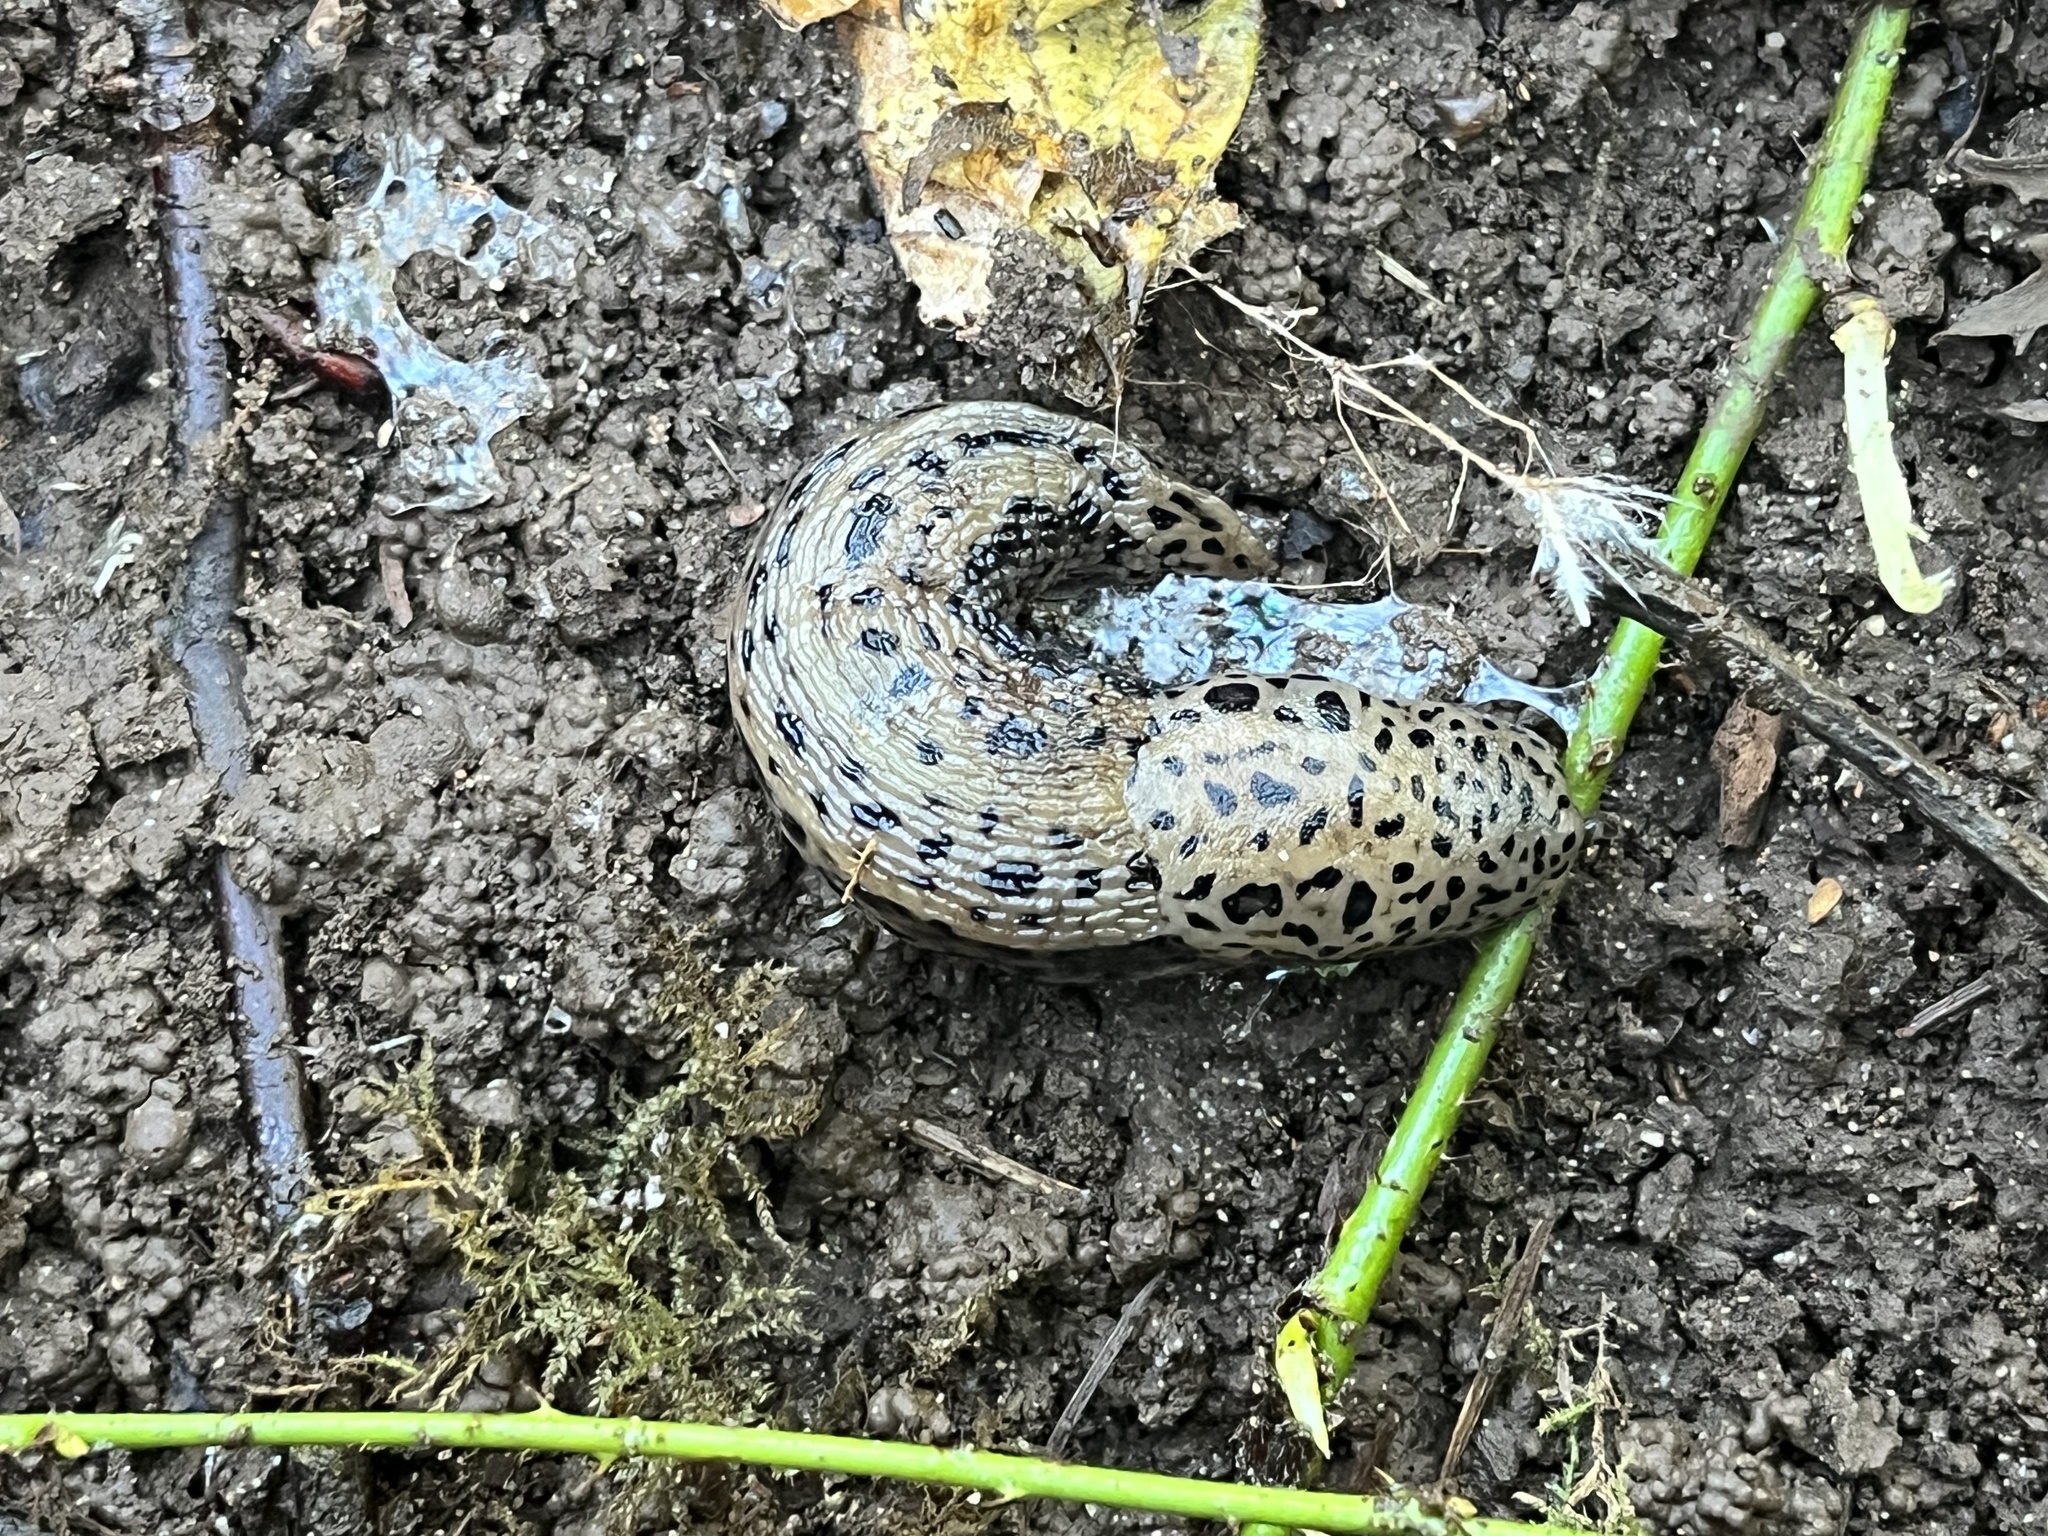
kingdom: Animalia
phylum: Mollusca
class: Gastropoda
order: Stylommatophora
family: Limacidae
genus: Limax
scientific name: Limax maximus
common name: Great grey slug
